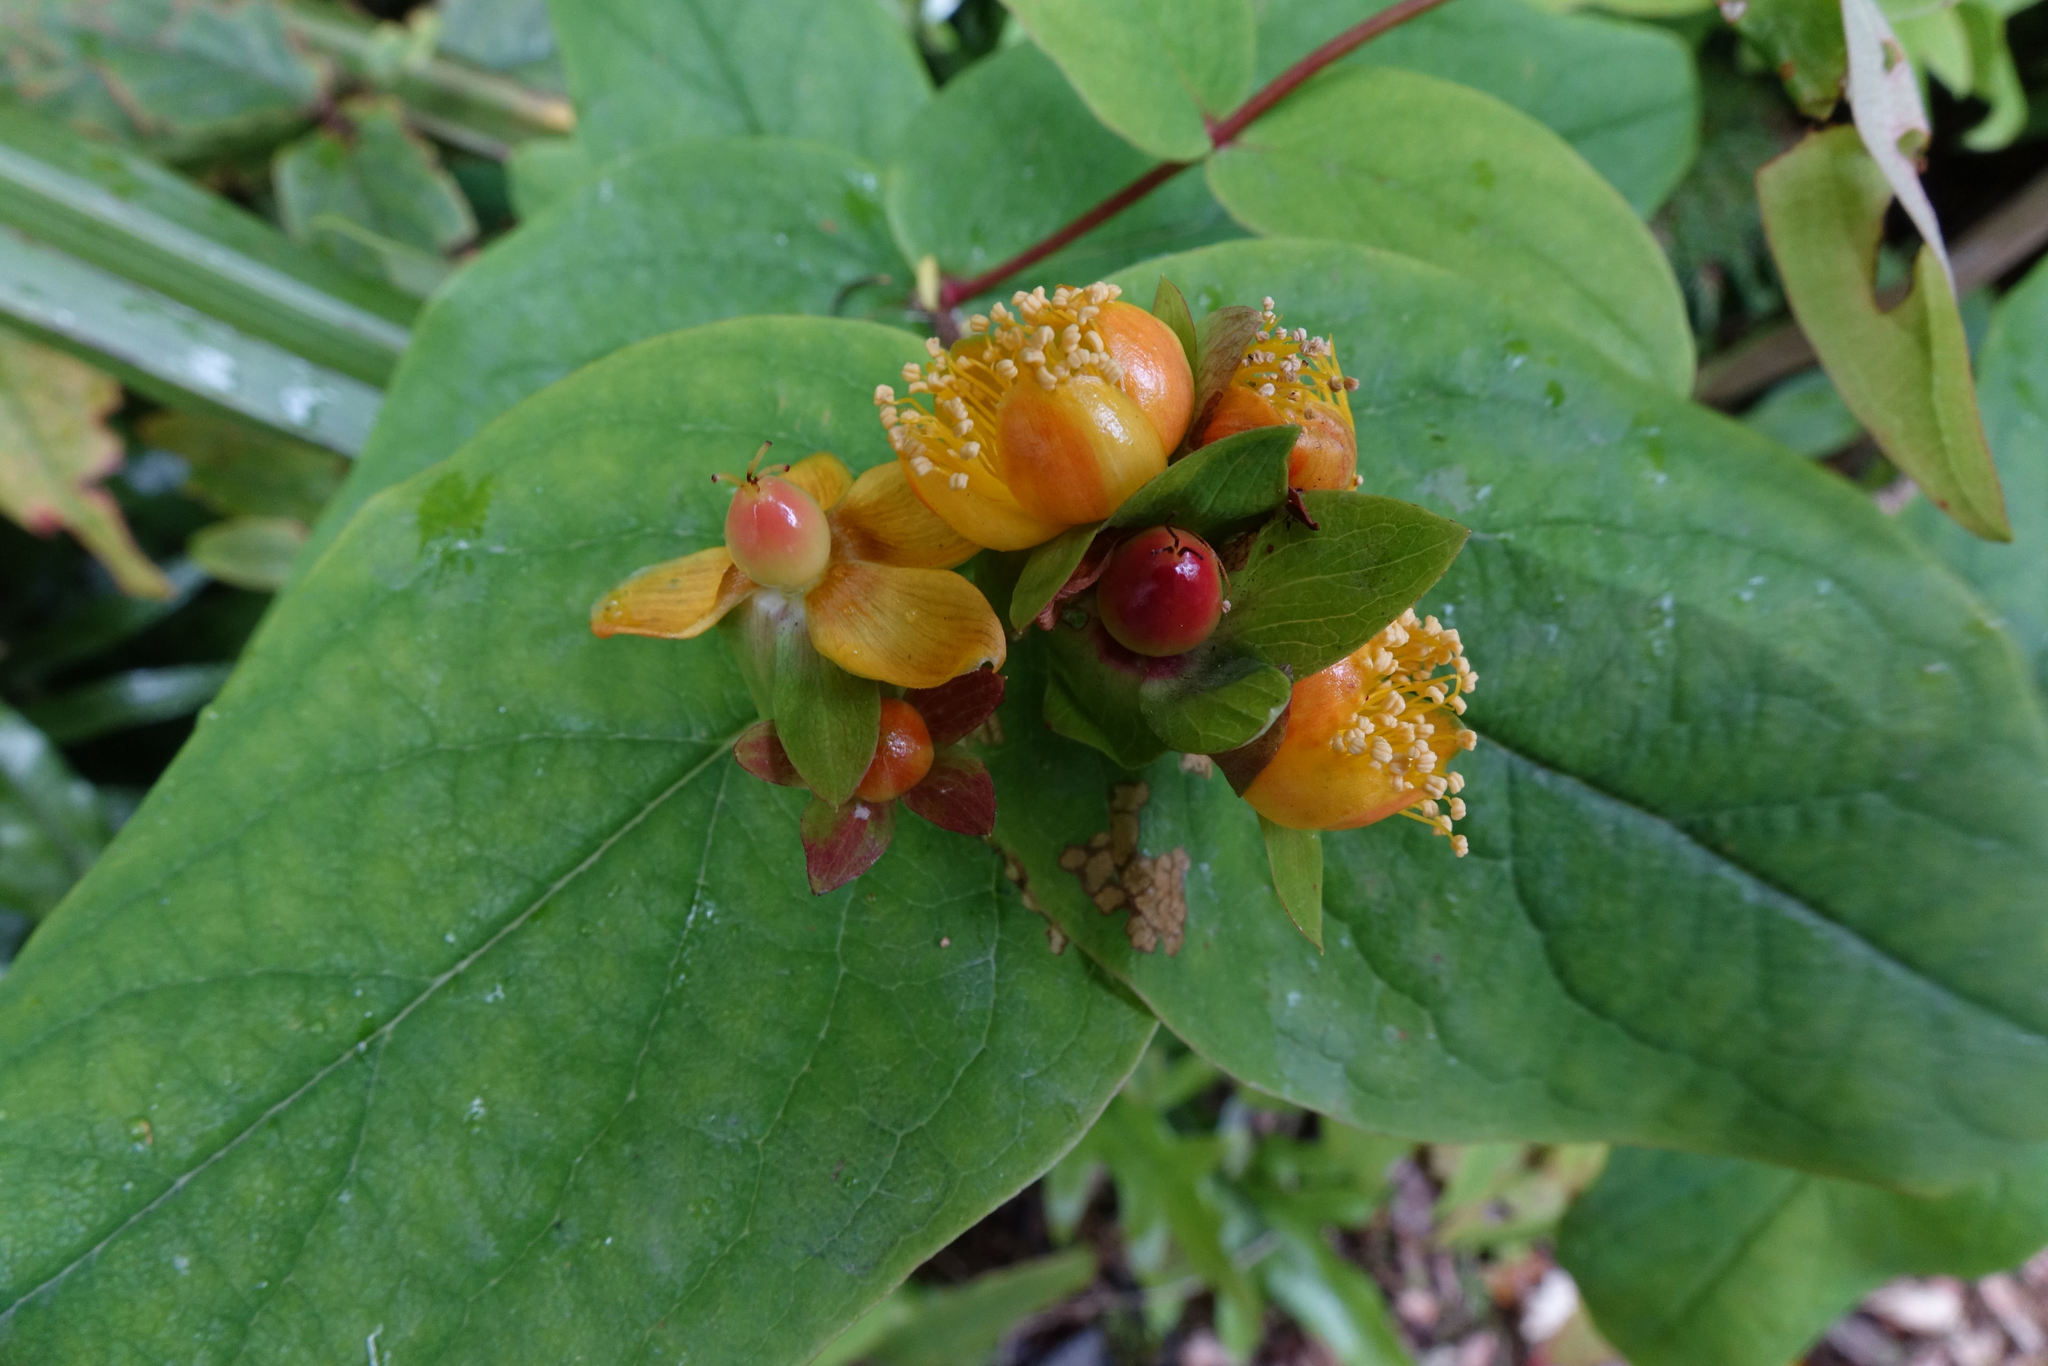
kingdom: Plantae
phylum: Tracheophyta
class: Magnoliopsida
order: Malpighiales
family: Hypericaceae
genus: Hypericum
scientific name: Hypericum androsaemum
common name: Sweet-amber
